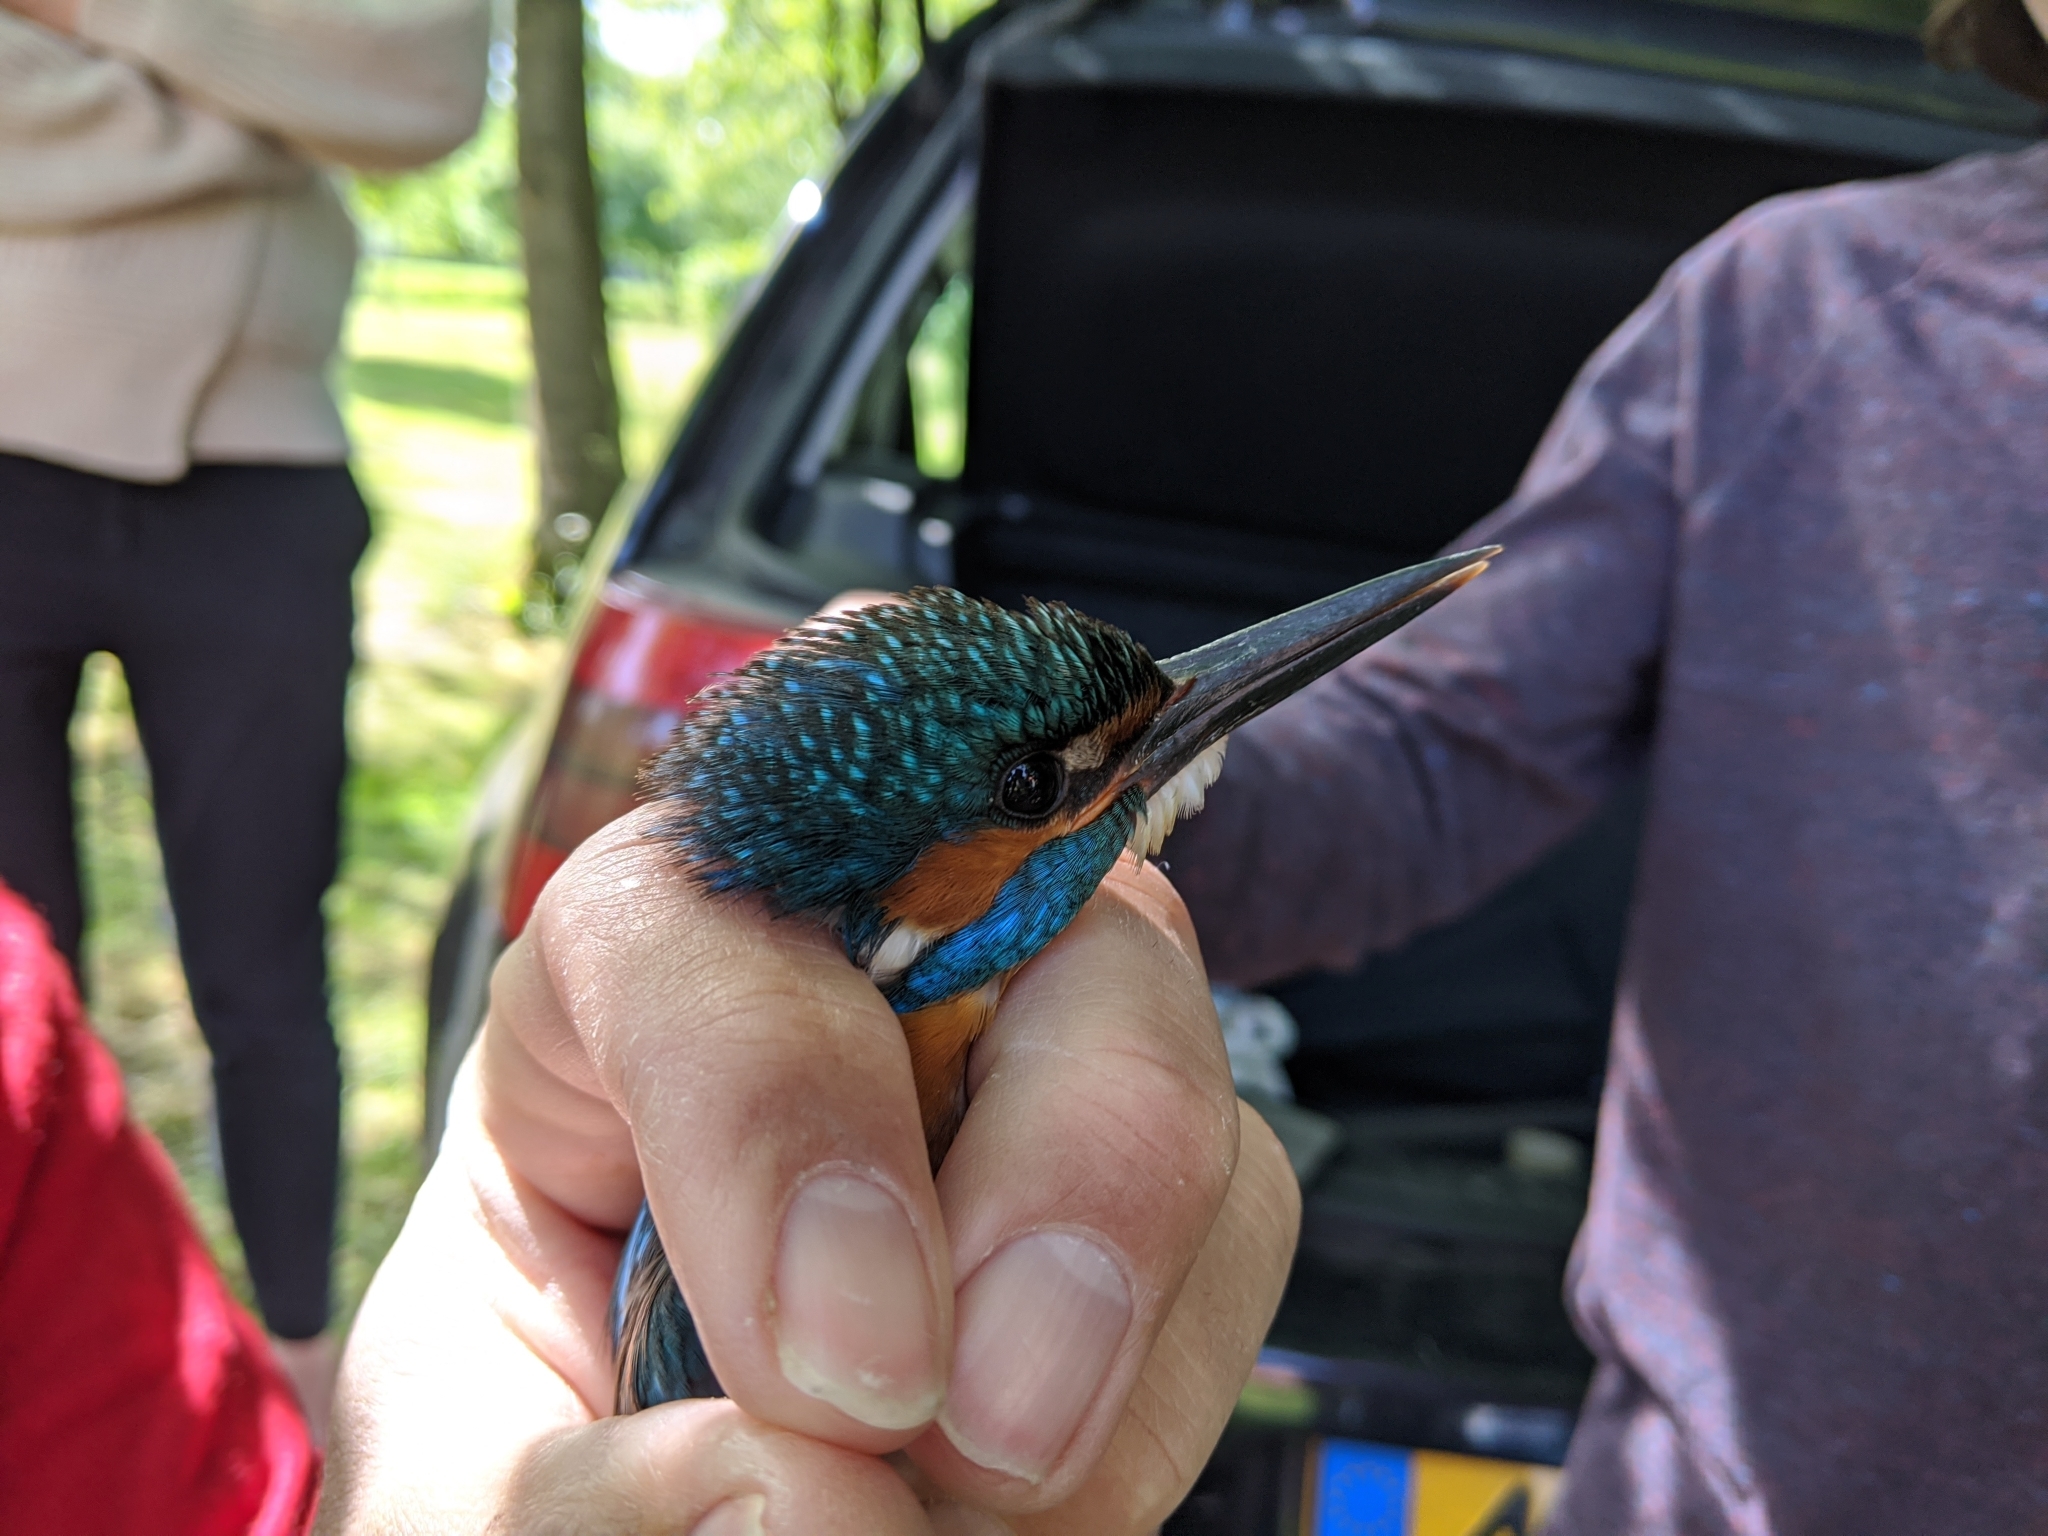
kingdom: Animalia
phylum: Chordata
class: Aves
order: Coraciiformes
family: Alcedinidae
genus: Alcedo
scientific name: Alcedo atthis
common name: Common kingfisher
